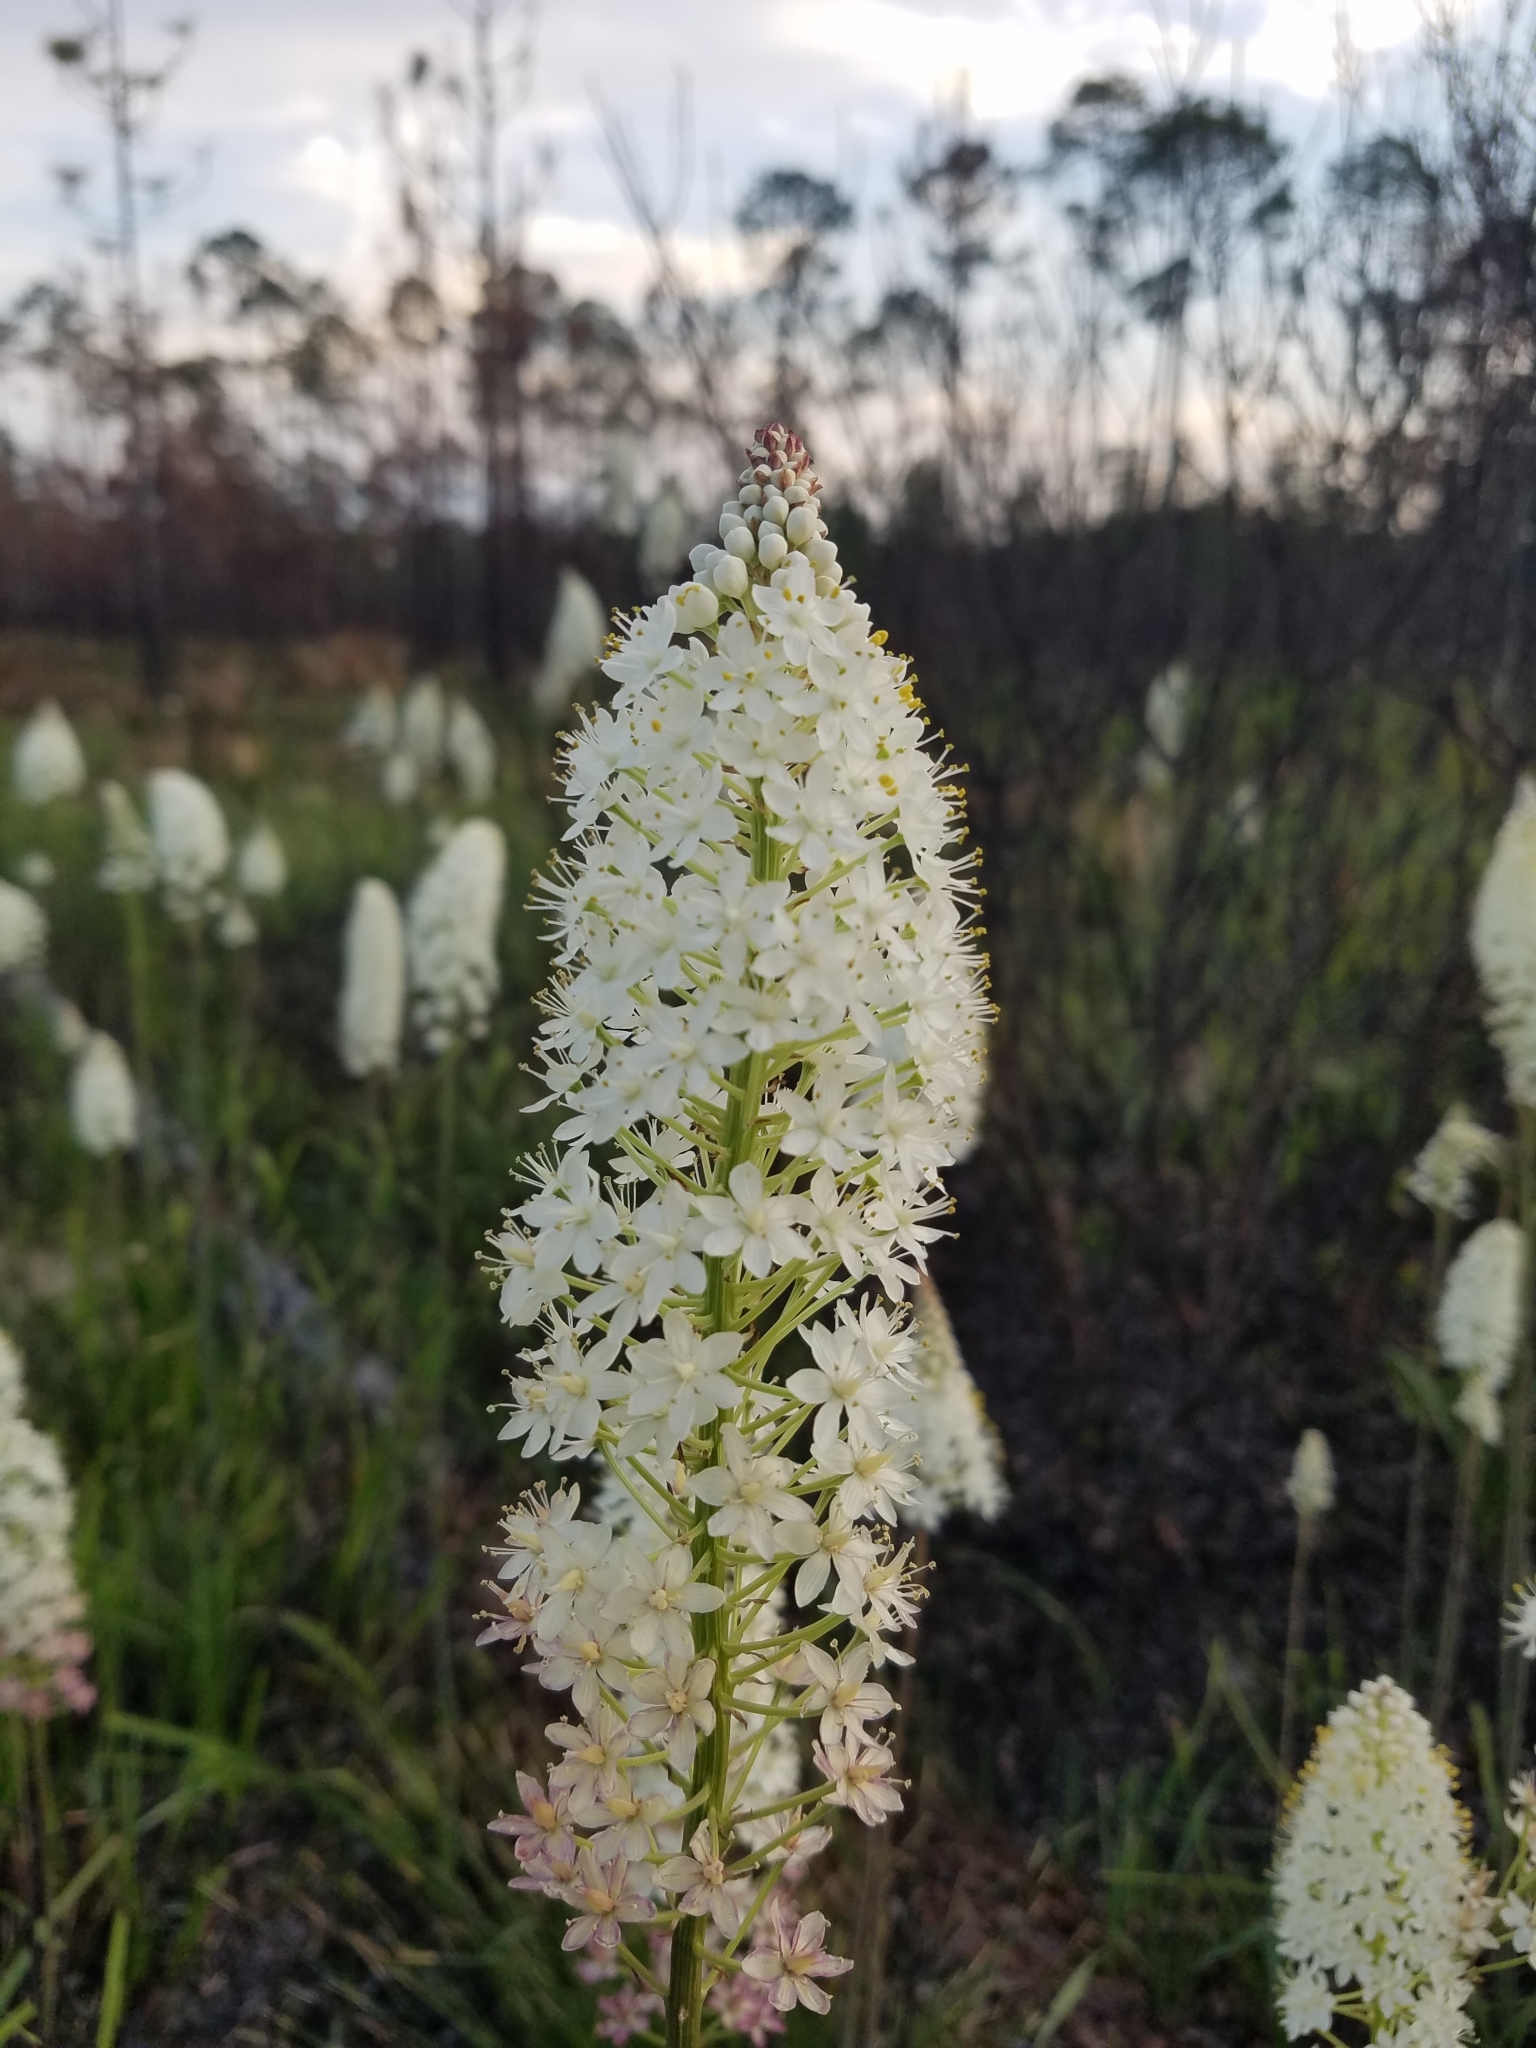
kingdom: Plantae
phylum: Tracheophyta
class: Liliopsida
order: Liliales
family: Melanthiaceae
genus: Stenanthium
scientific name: Stenanthium densum
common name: Crow-poison
